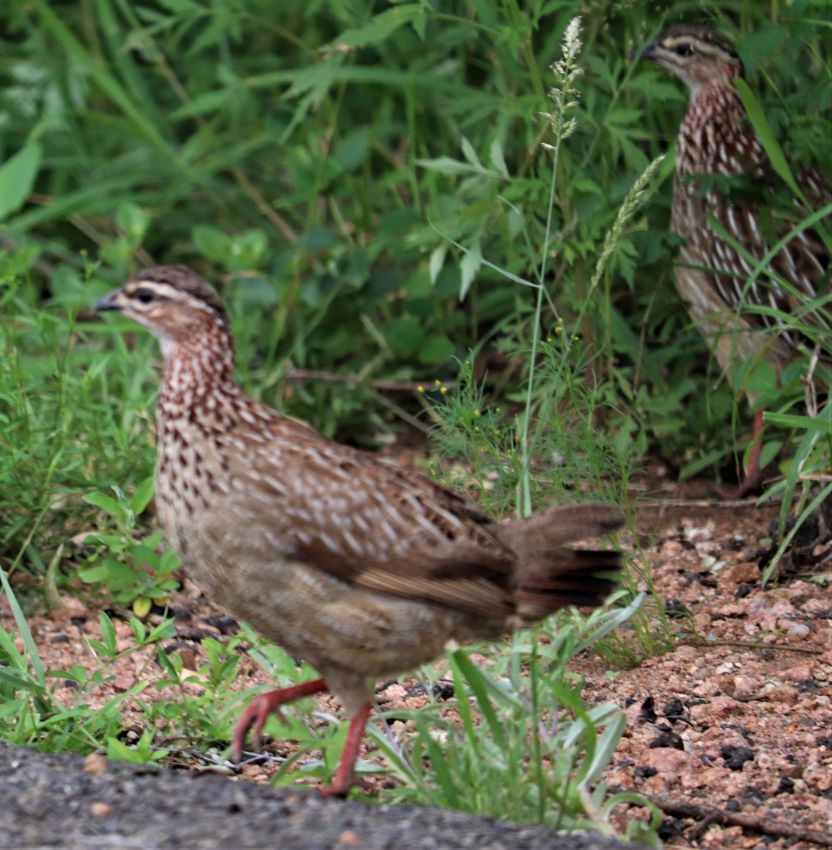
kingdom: Animalia
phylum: Chordata
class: Aves
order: Galliformes
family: Phasianidae
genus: Ortygornis
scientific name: Ortygornis sephaena
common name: Crested francolin
